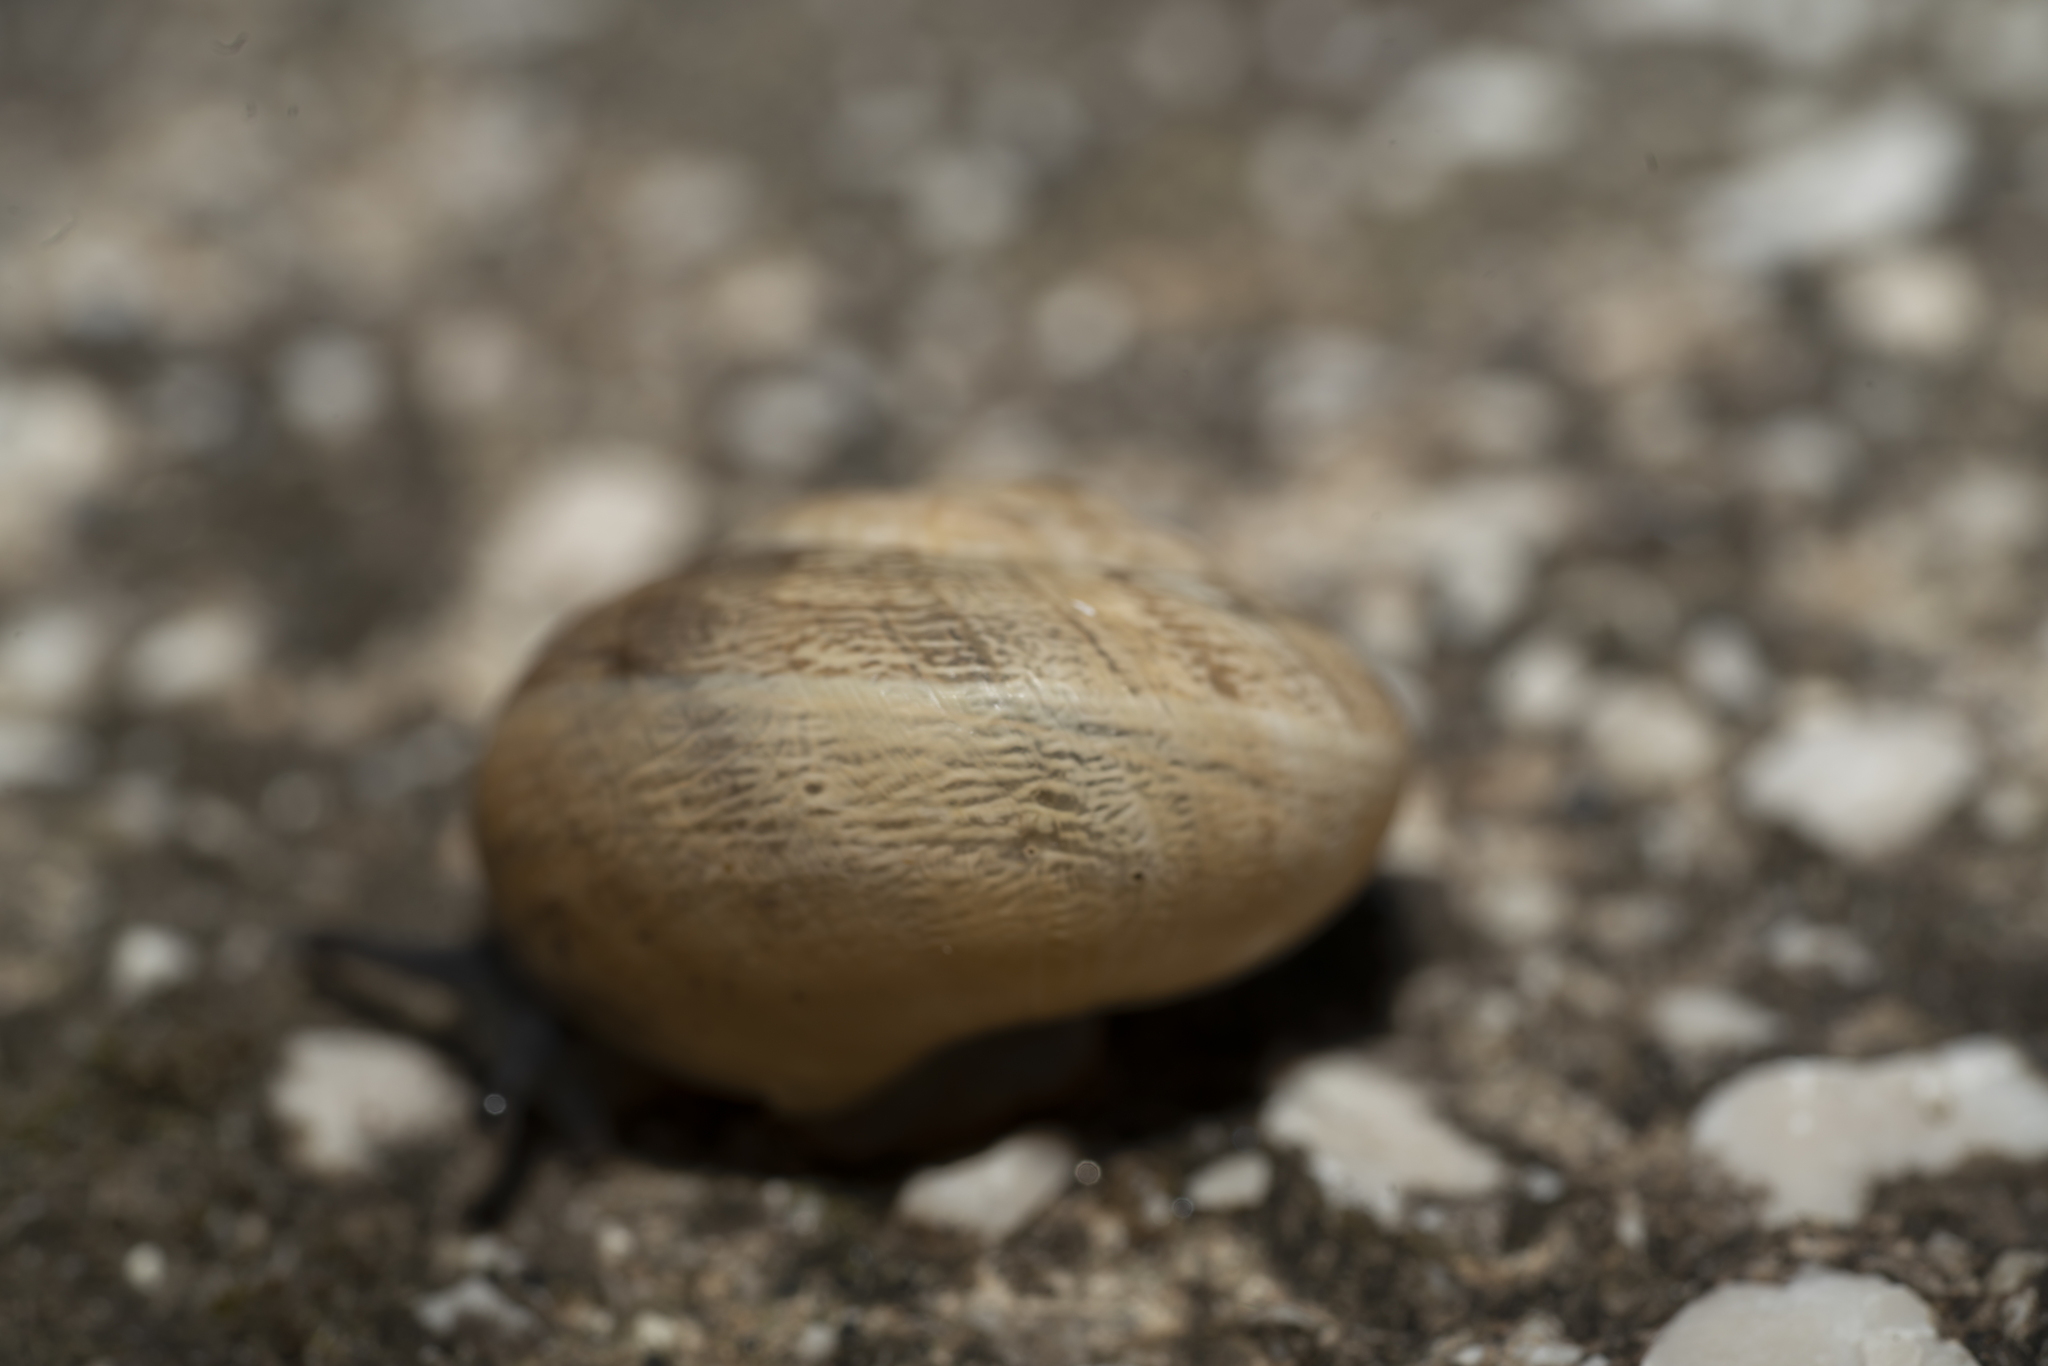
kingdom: Animalia
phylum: Mollusca
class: Gastropoda
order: Stylommatophora
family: Helicidae
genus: Eobania
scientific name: Eobania vermiculata
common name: Chocolateband snail
